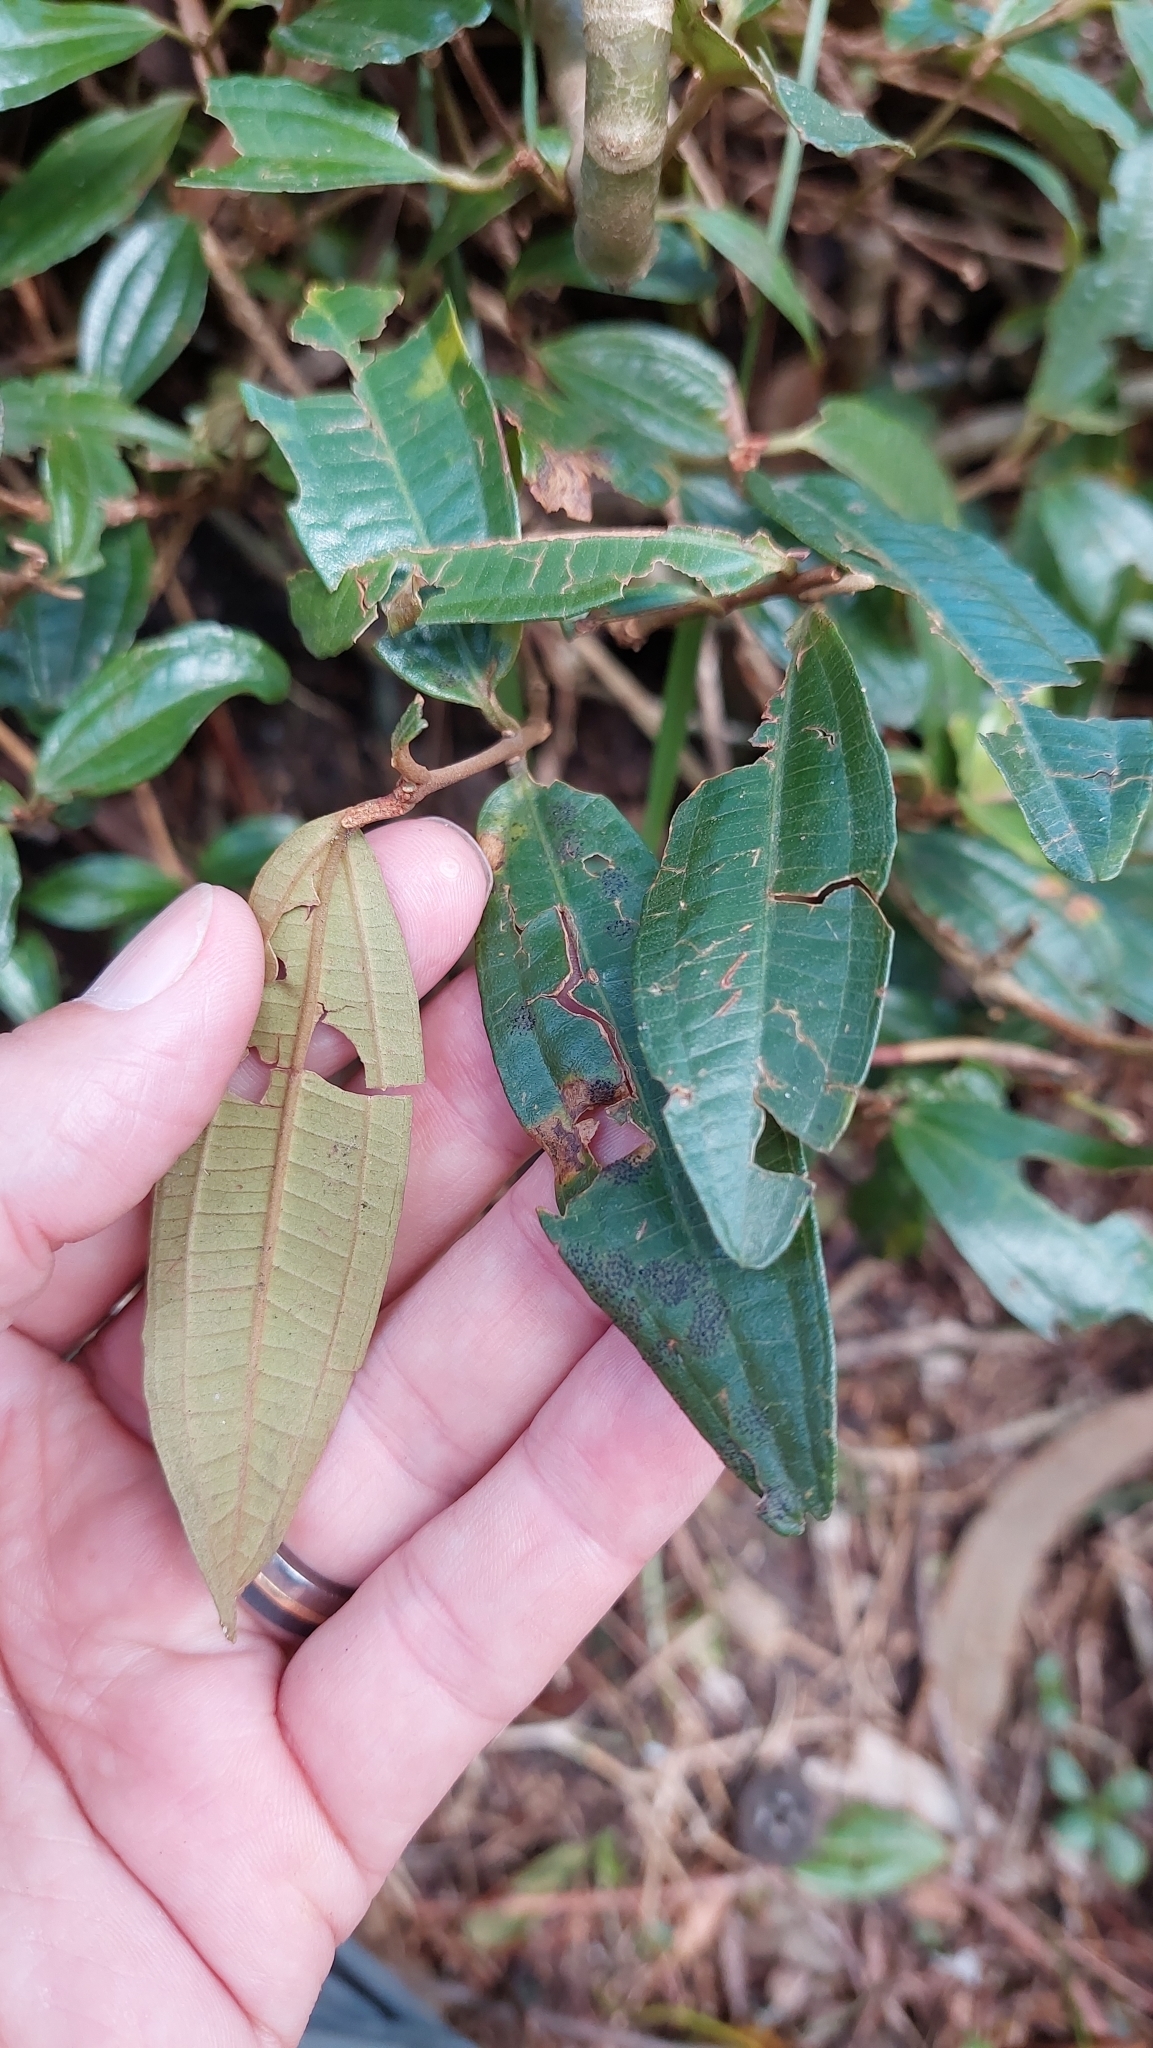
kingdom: Plantae
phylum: Tracheophyta
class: Magnoliopsida
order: Myrtales
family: Melastomataceae
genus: Miconia
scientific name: Miconia squamulosa
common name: Squamulose maya
